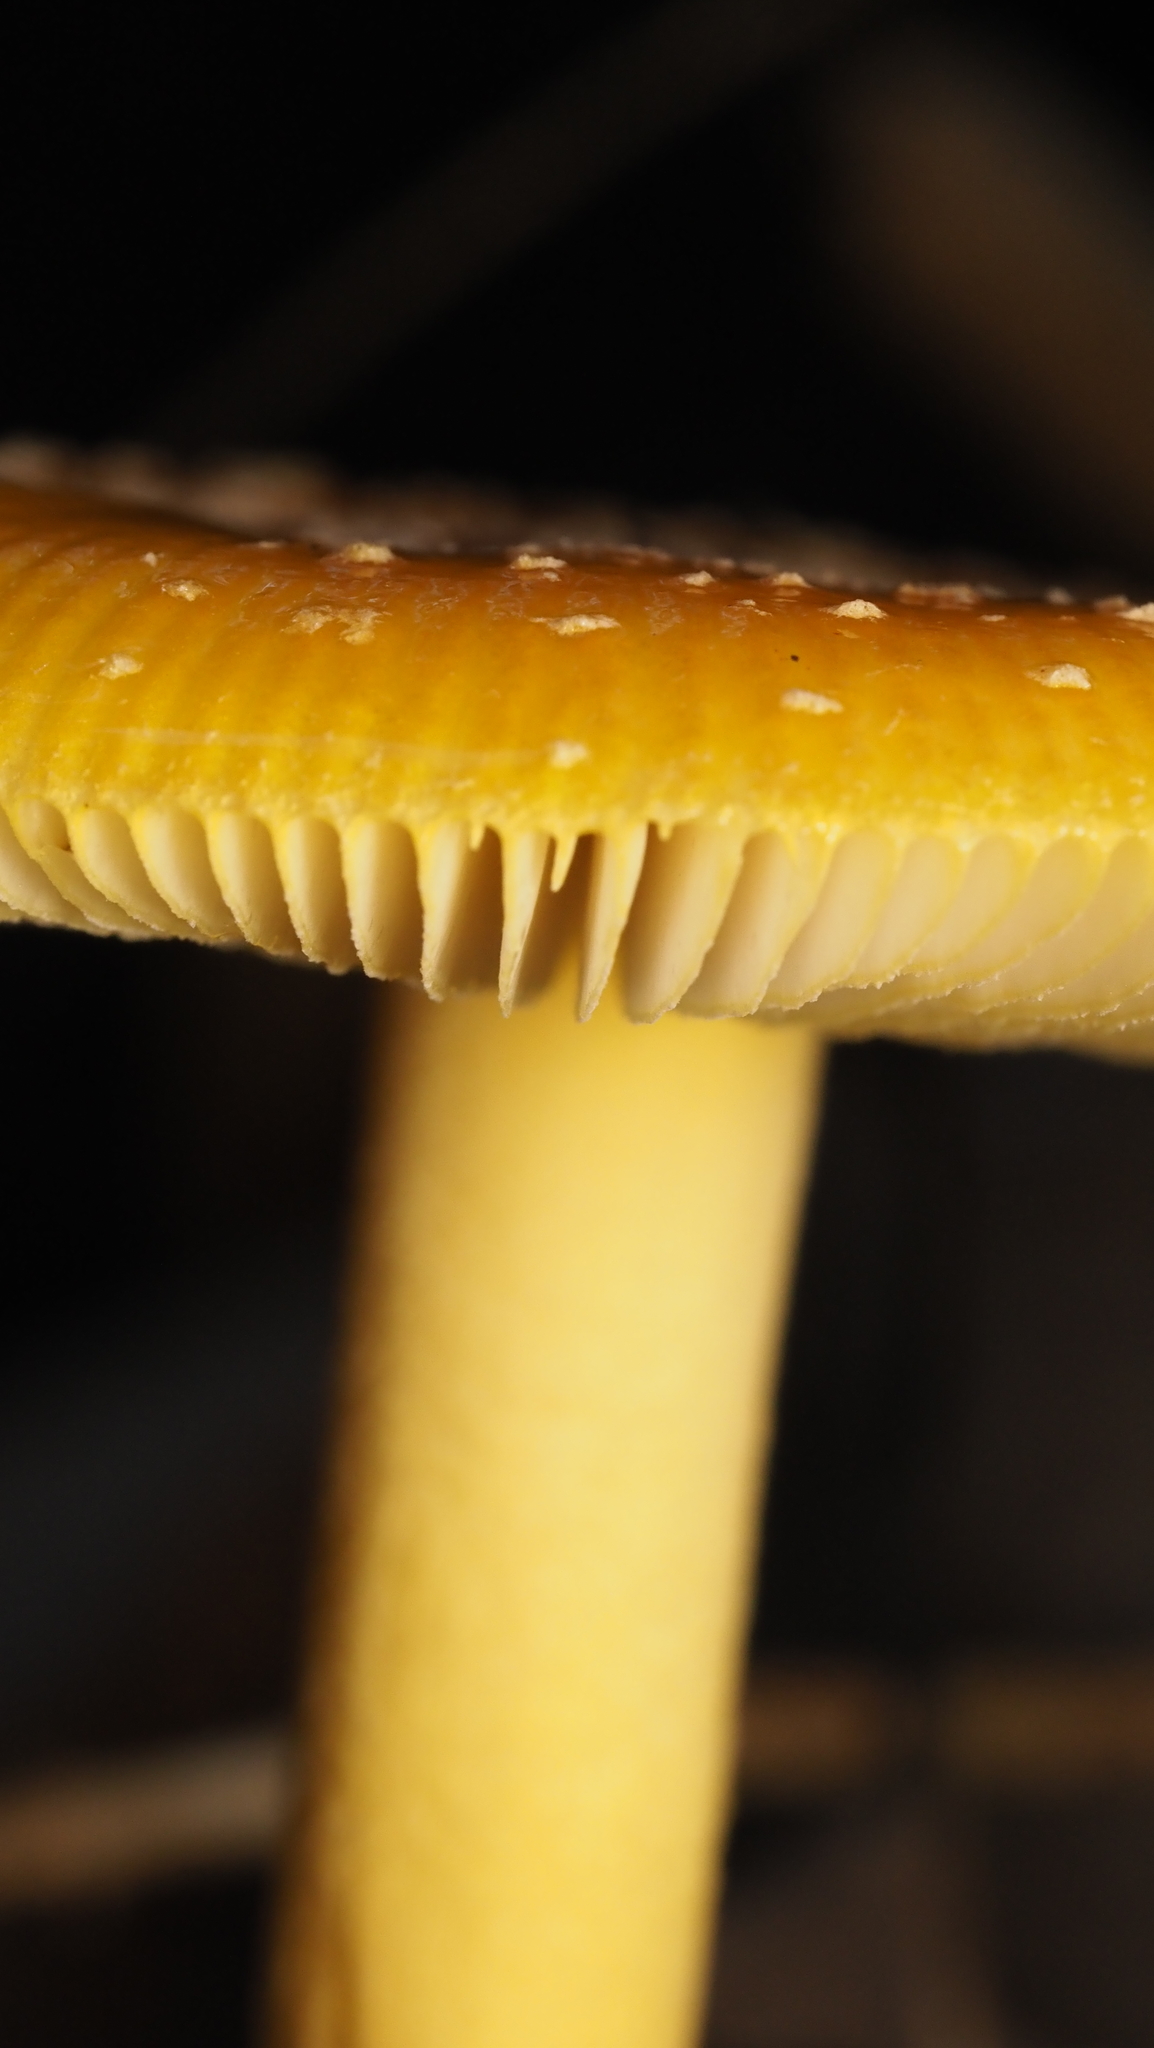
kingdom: Fungi
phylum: Basidiomycota
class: Agaricomycetes
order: Agaricales
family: Amanitaceae
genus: Amanita
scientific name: Amanita frostiana
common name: Frost's amanita
